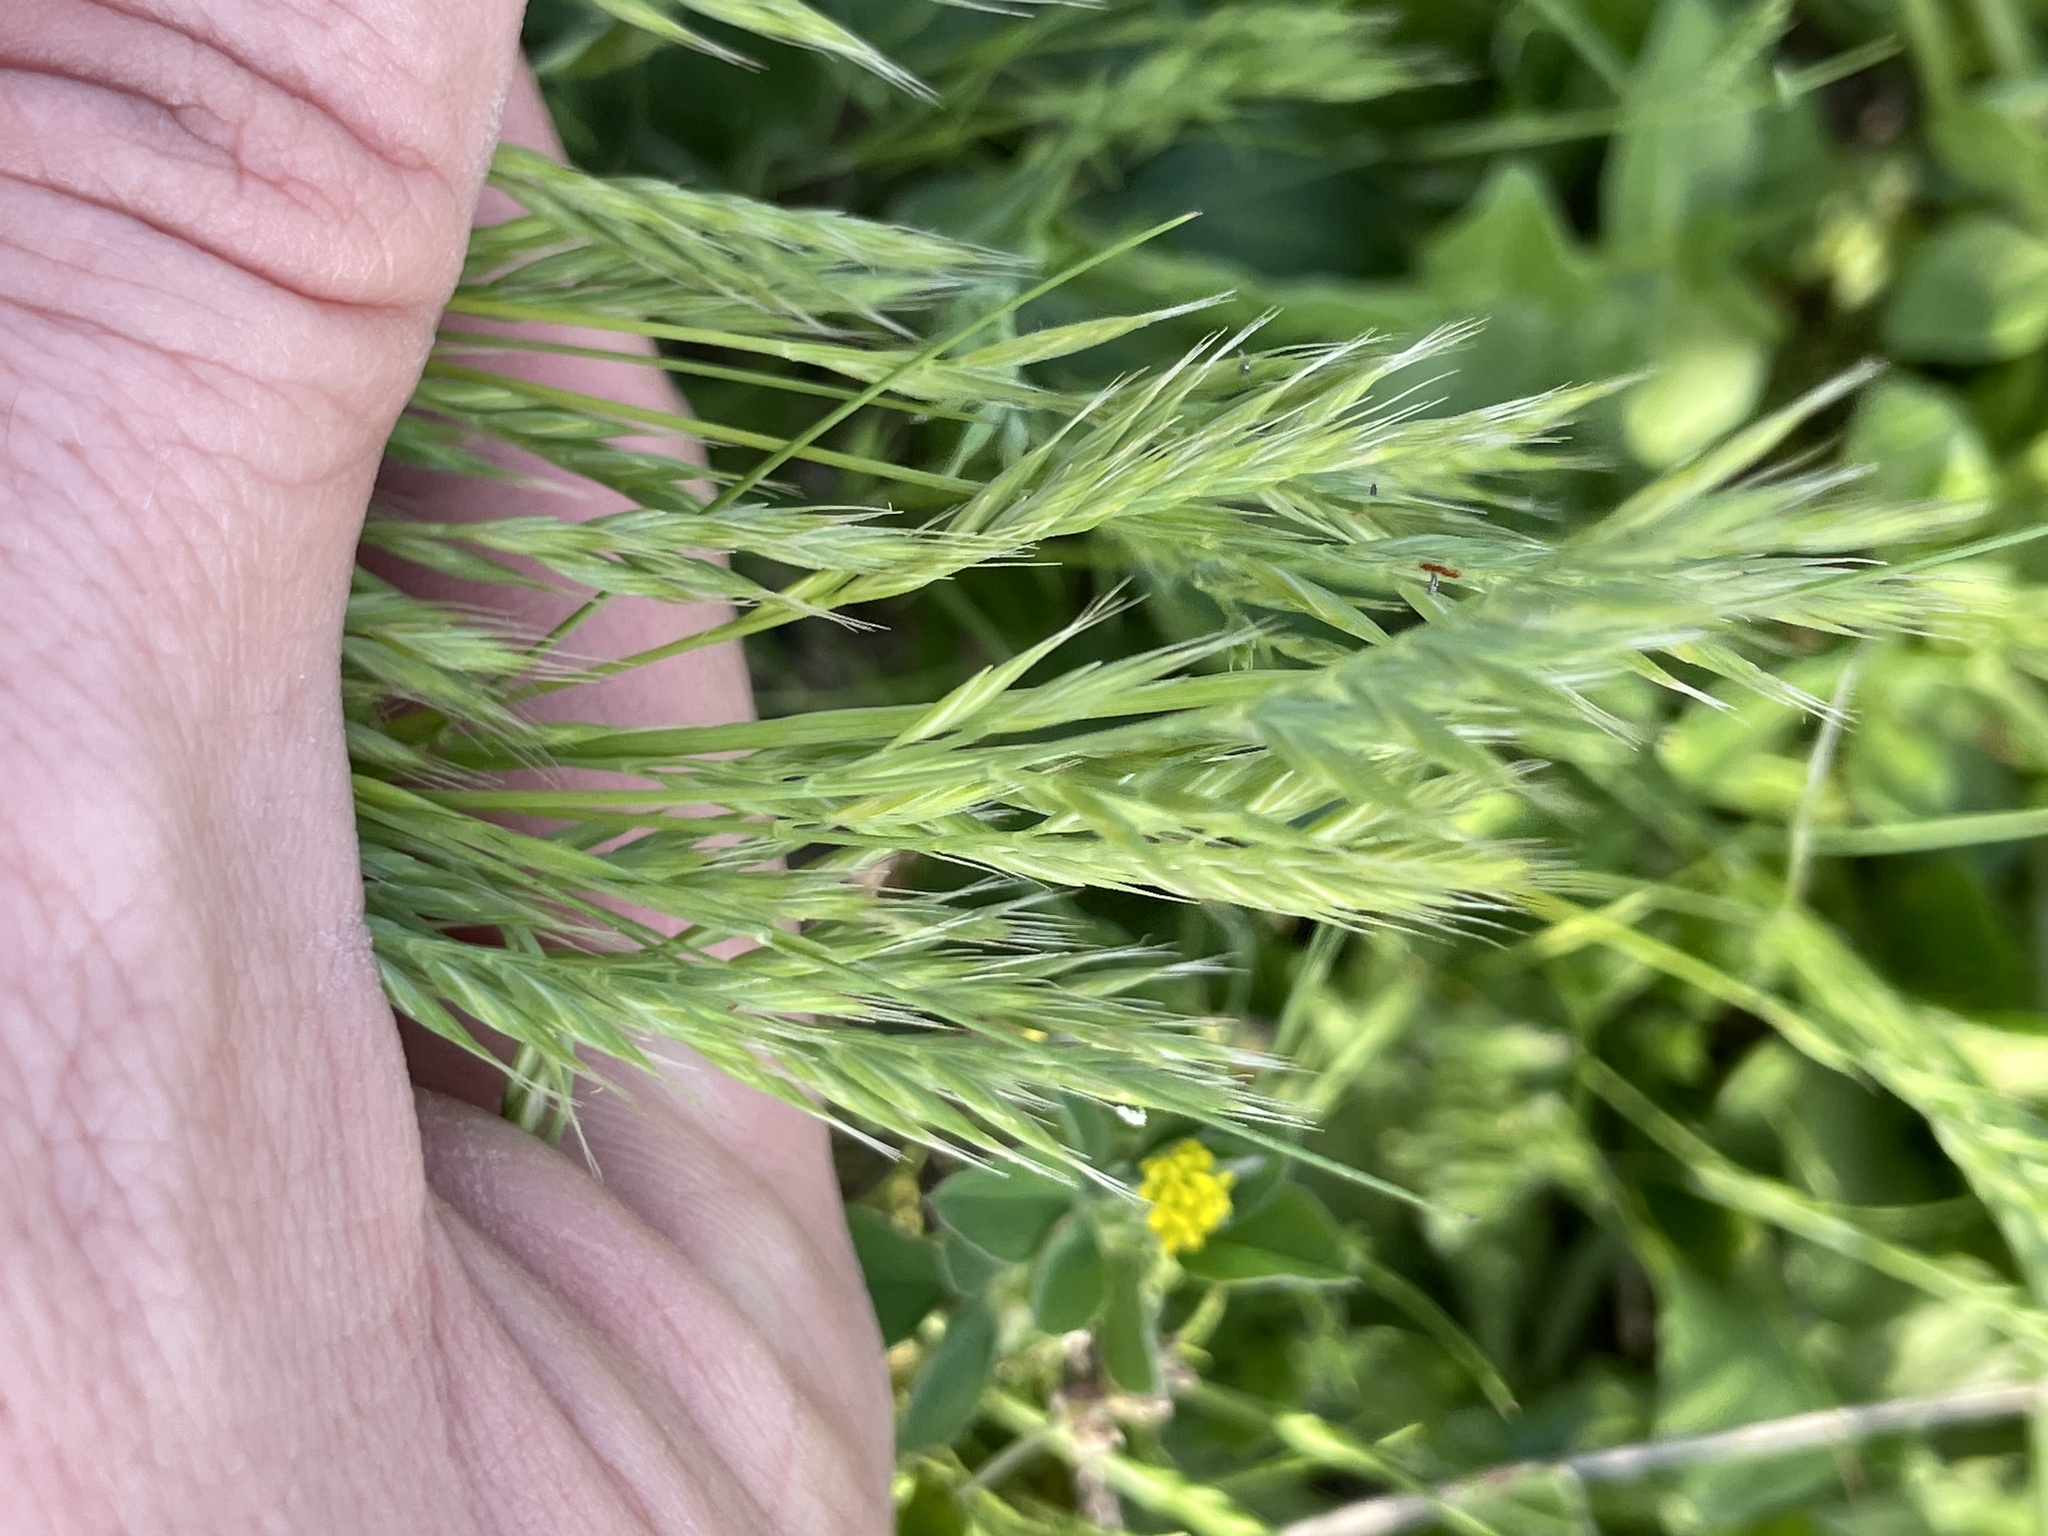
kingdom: Plantae
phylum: Tracheophyta
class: Liliopsida
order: Poales
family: Poaceae
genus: Festuca
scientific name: Festuca octoflora
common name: Sixweeks grass
